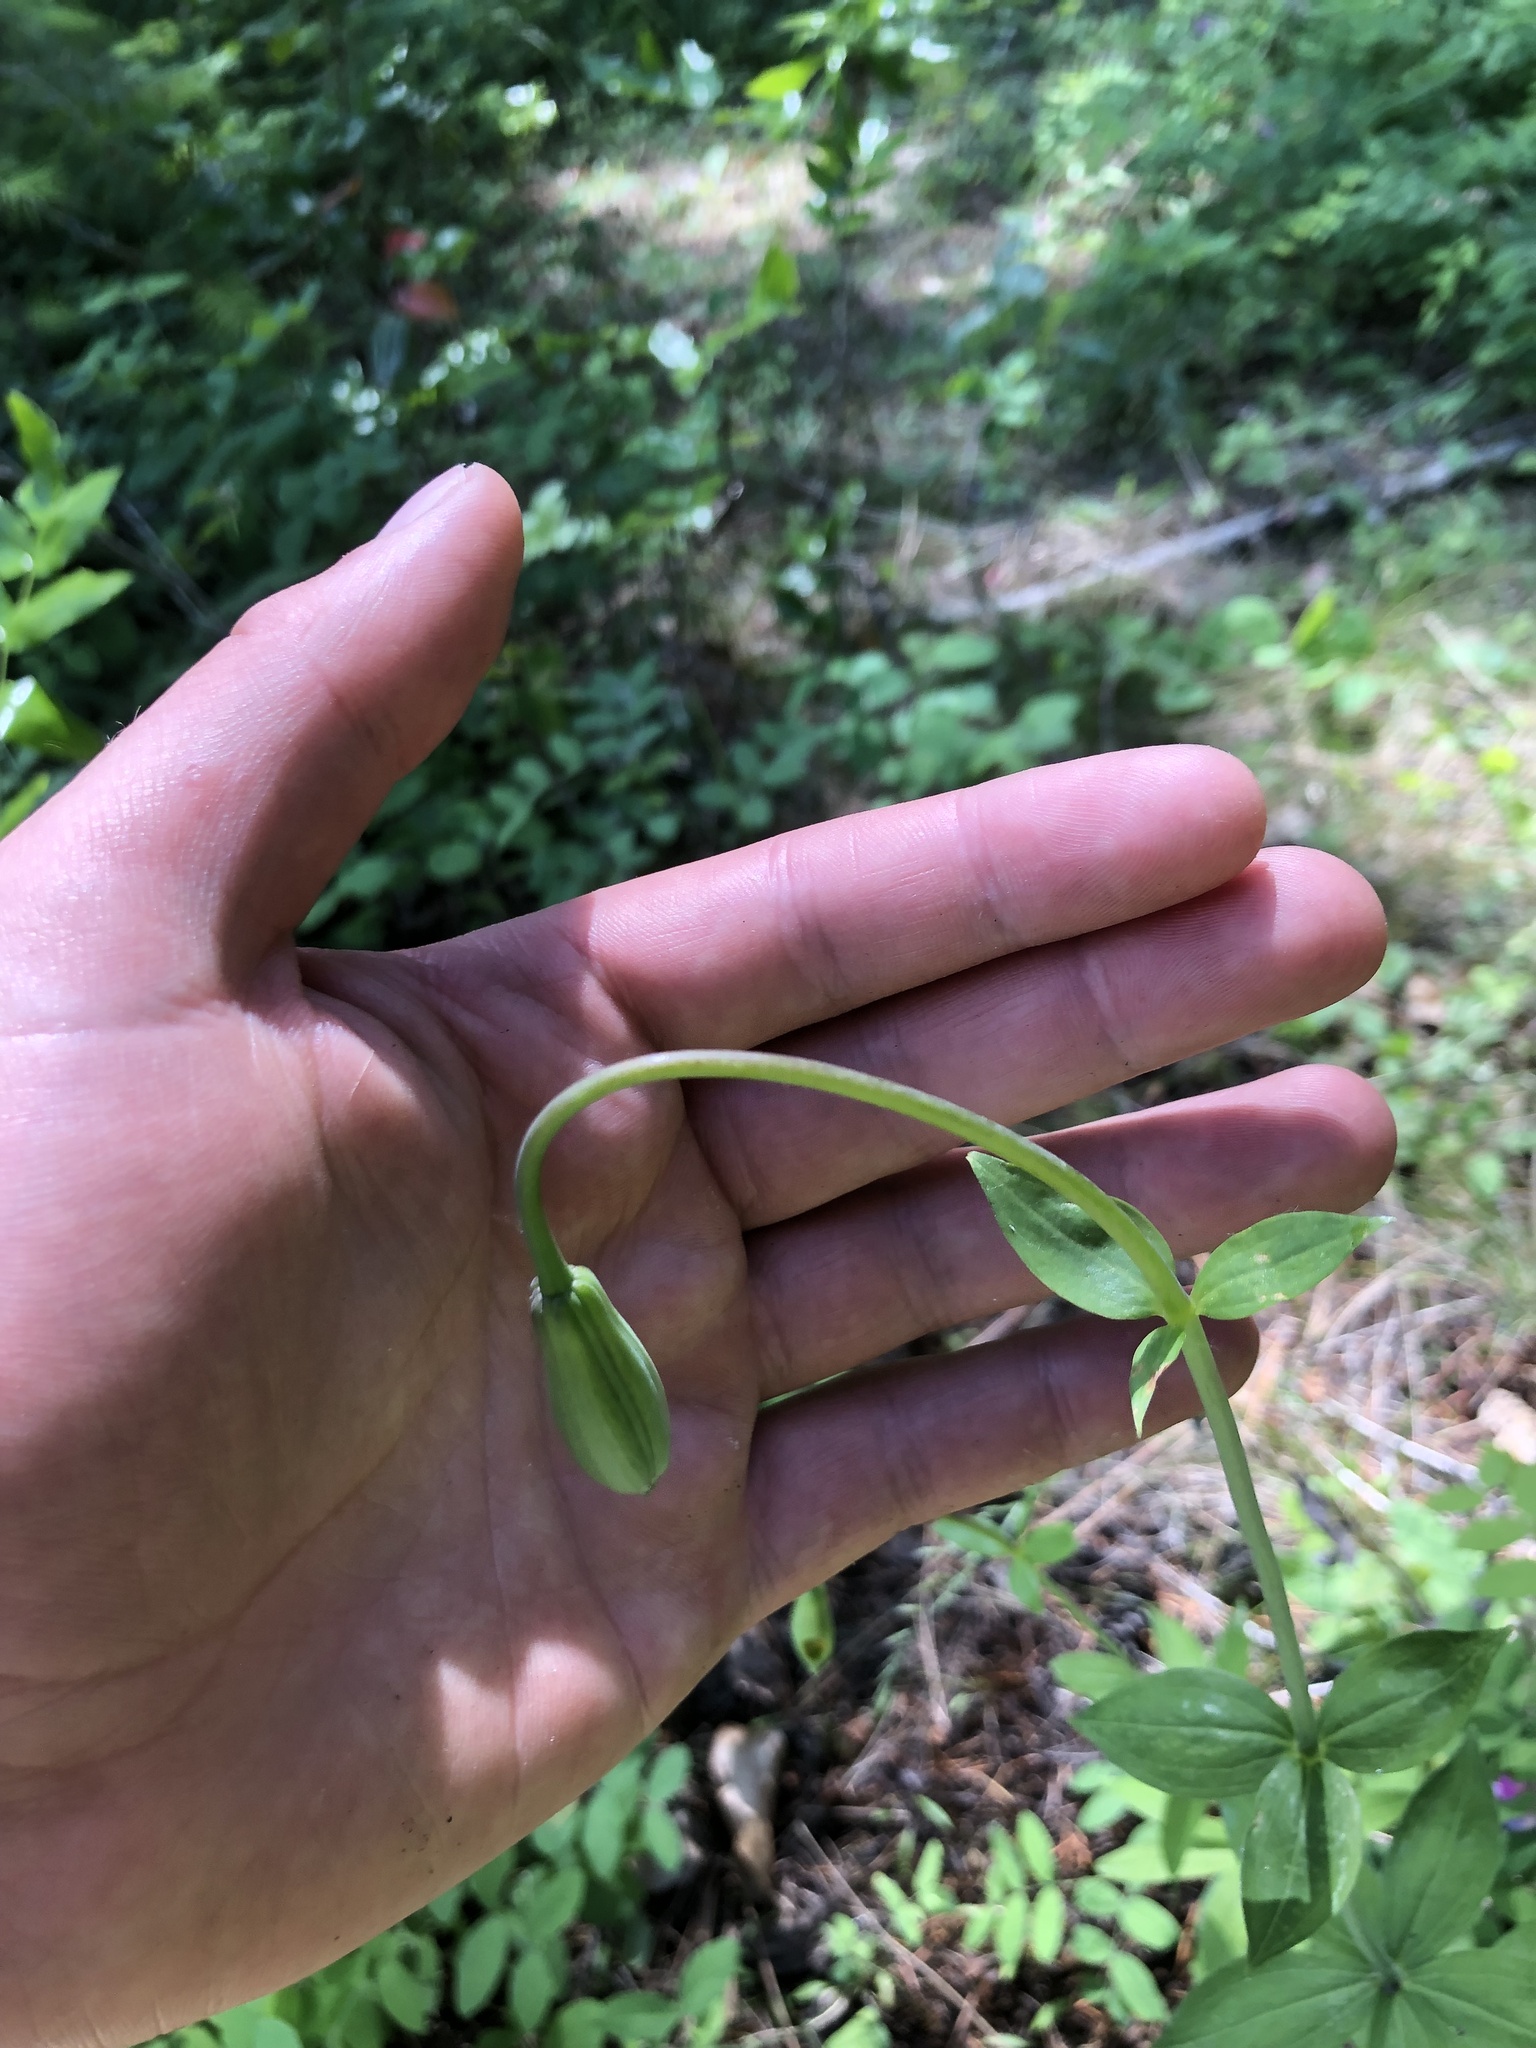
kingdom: Plantae
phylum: Tracheophyta
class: Liliopsida
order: Liliales
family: Liliaceae
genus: Lilium
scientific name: Lilium columbianum
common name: Columbia lily
